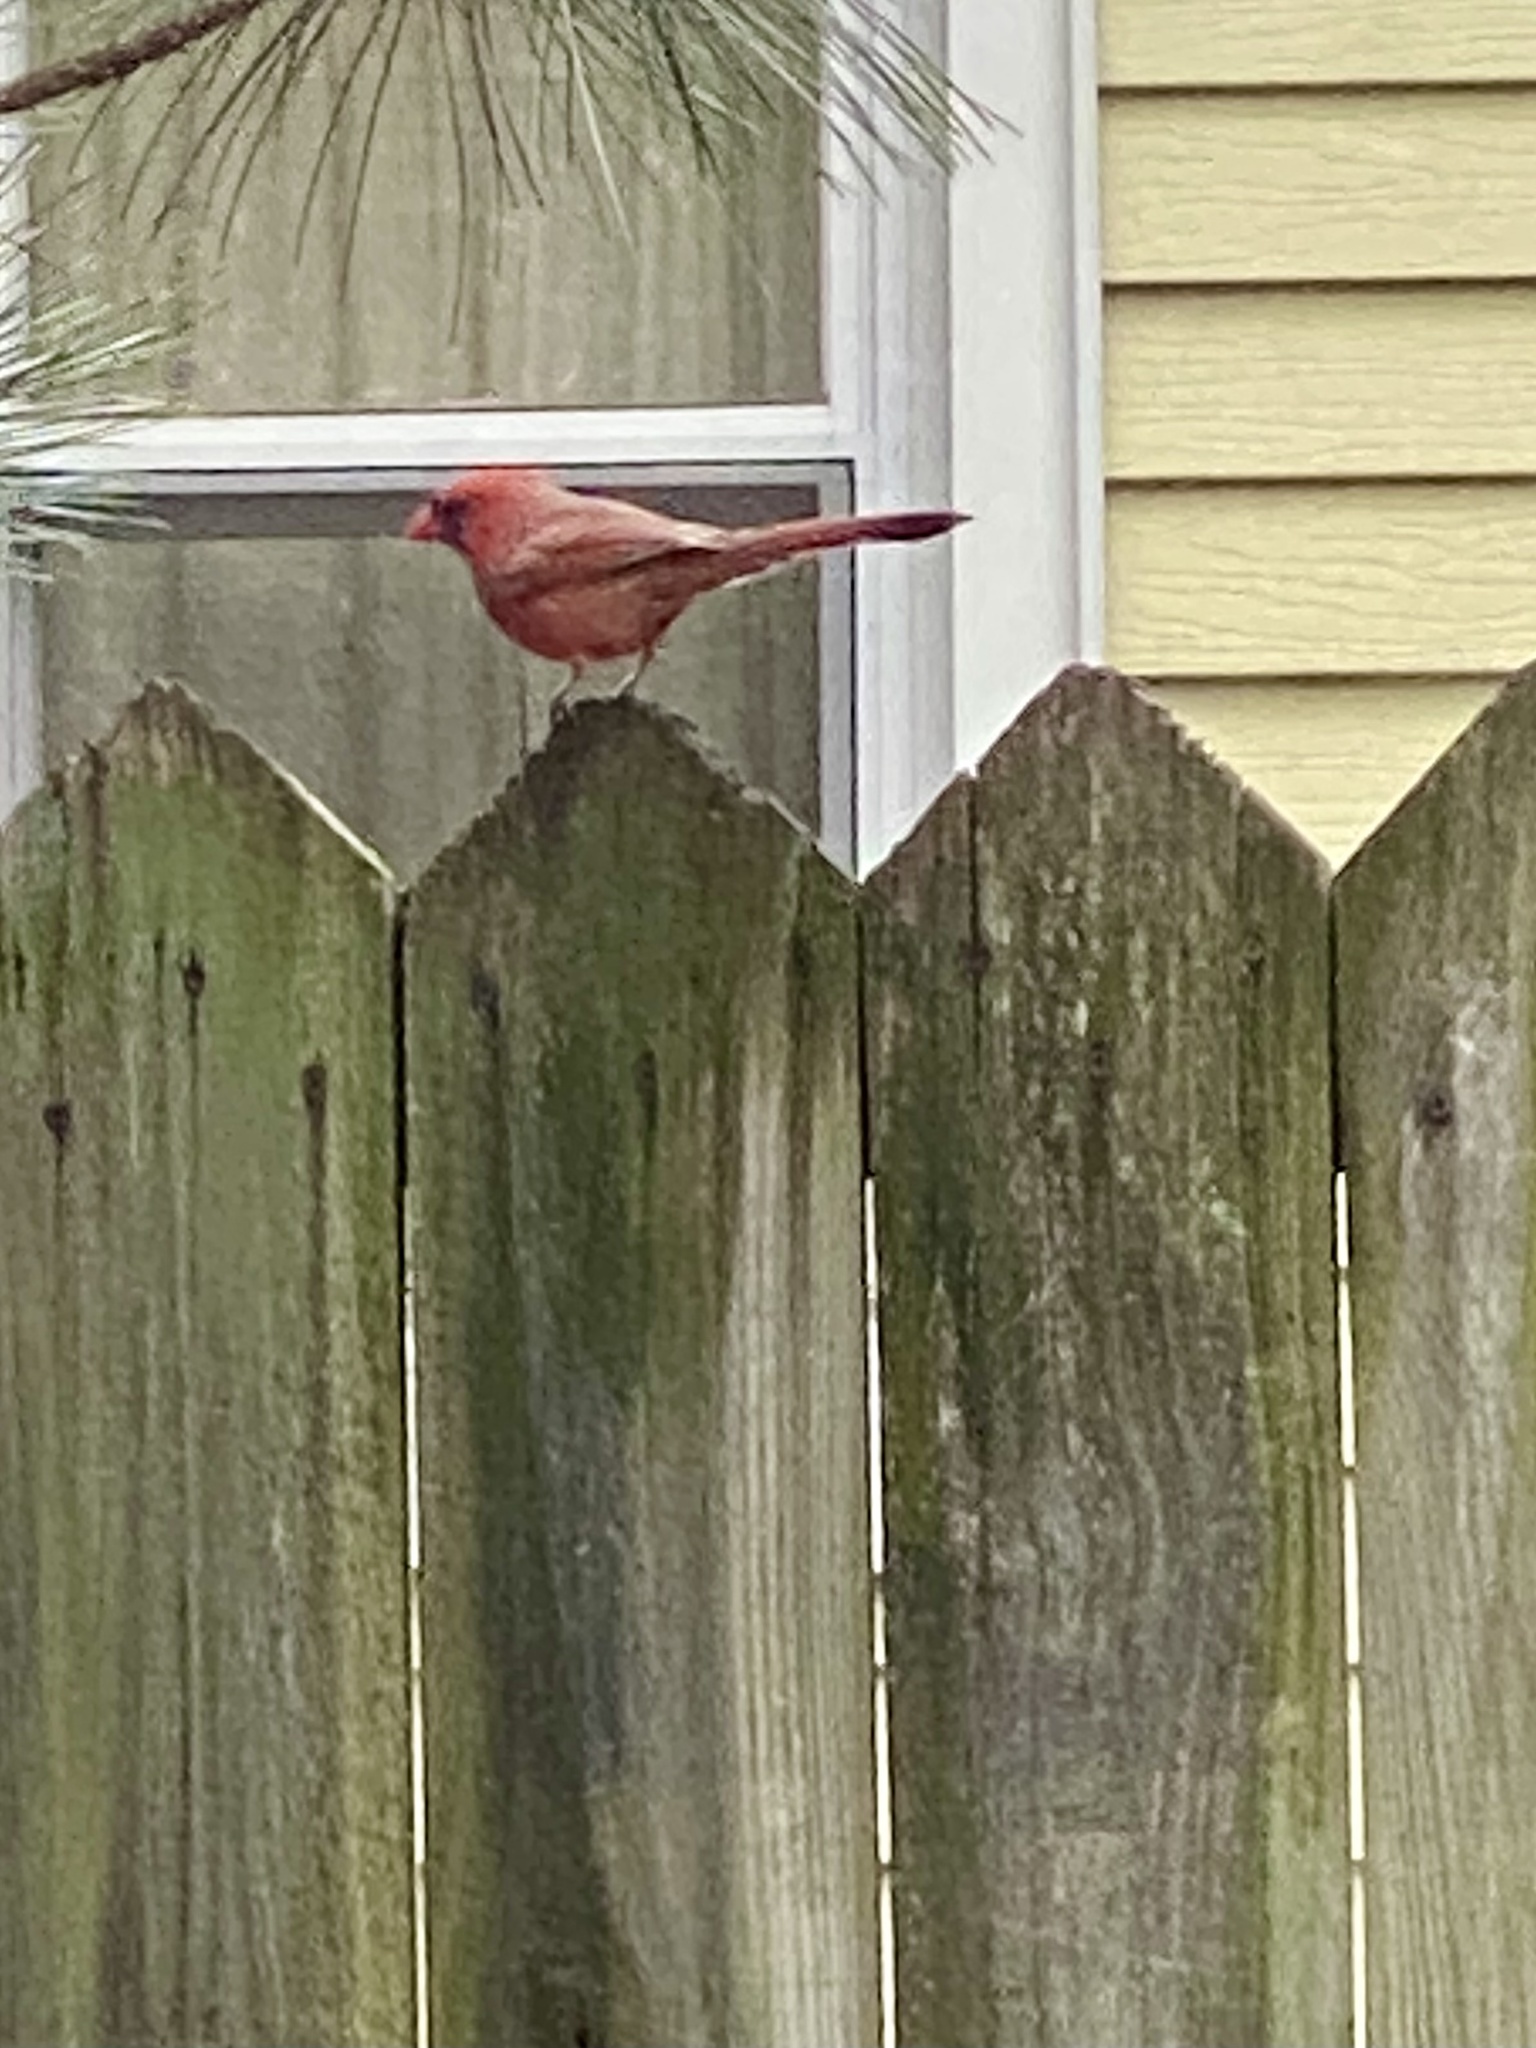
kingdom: Animalia
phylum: Chordata
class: Aves
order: Passeriformes
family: Cardinalidae
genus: Cardinalis
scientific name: Cardinalis cardinalis
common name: Northern cardinal
